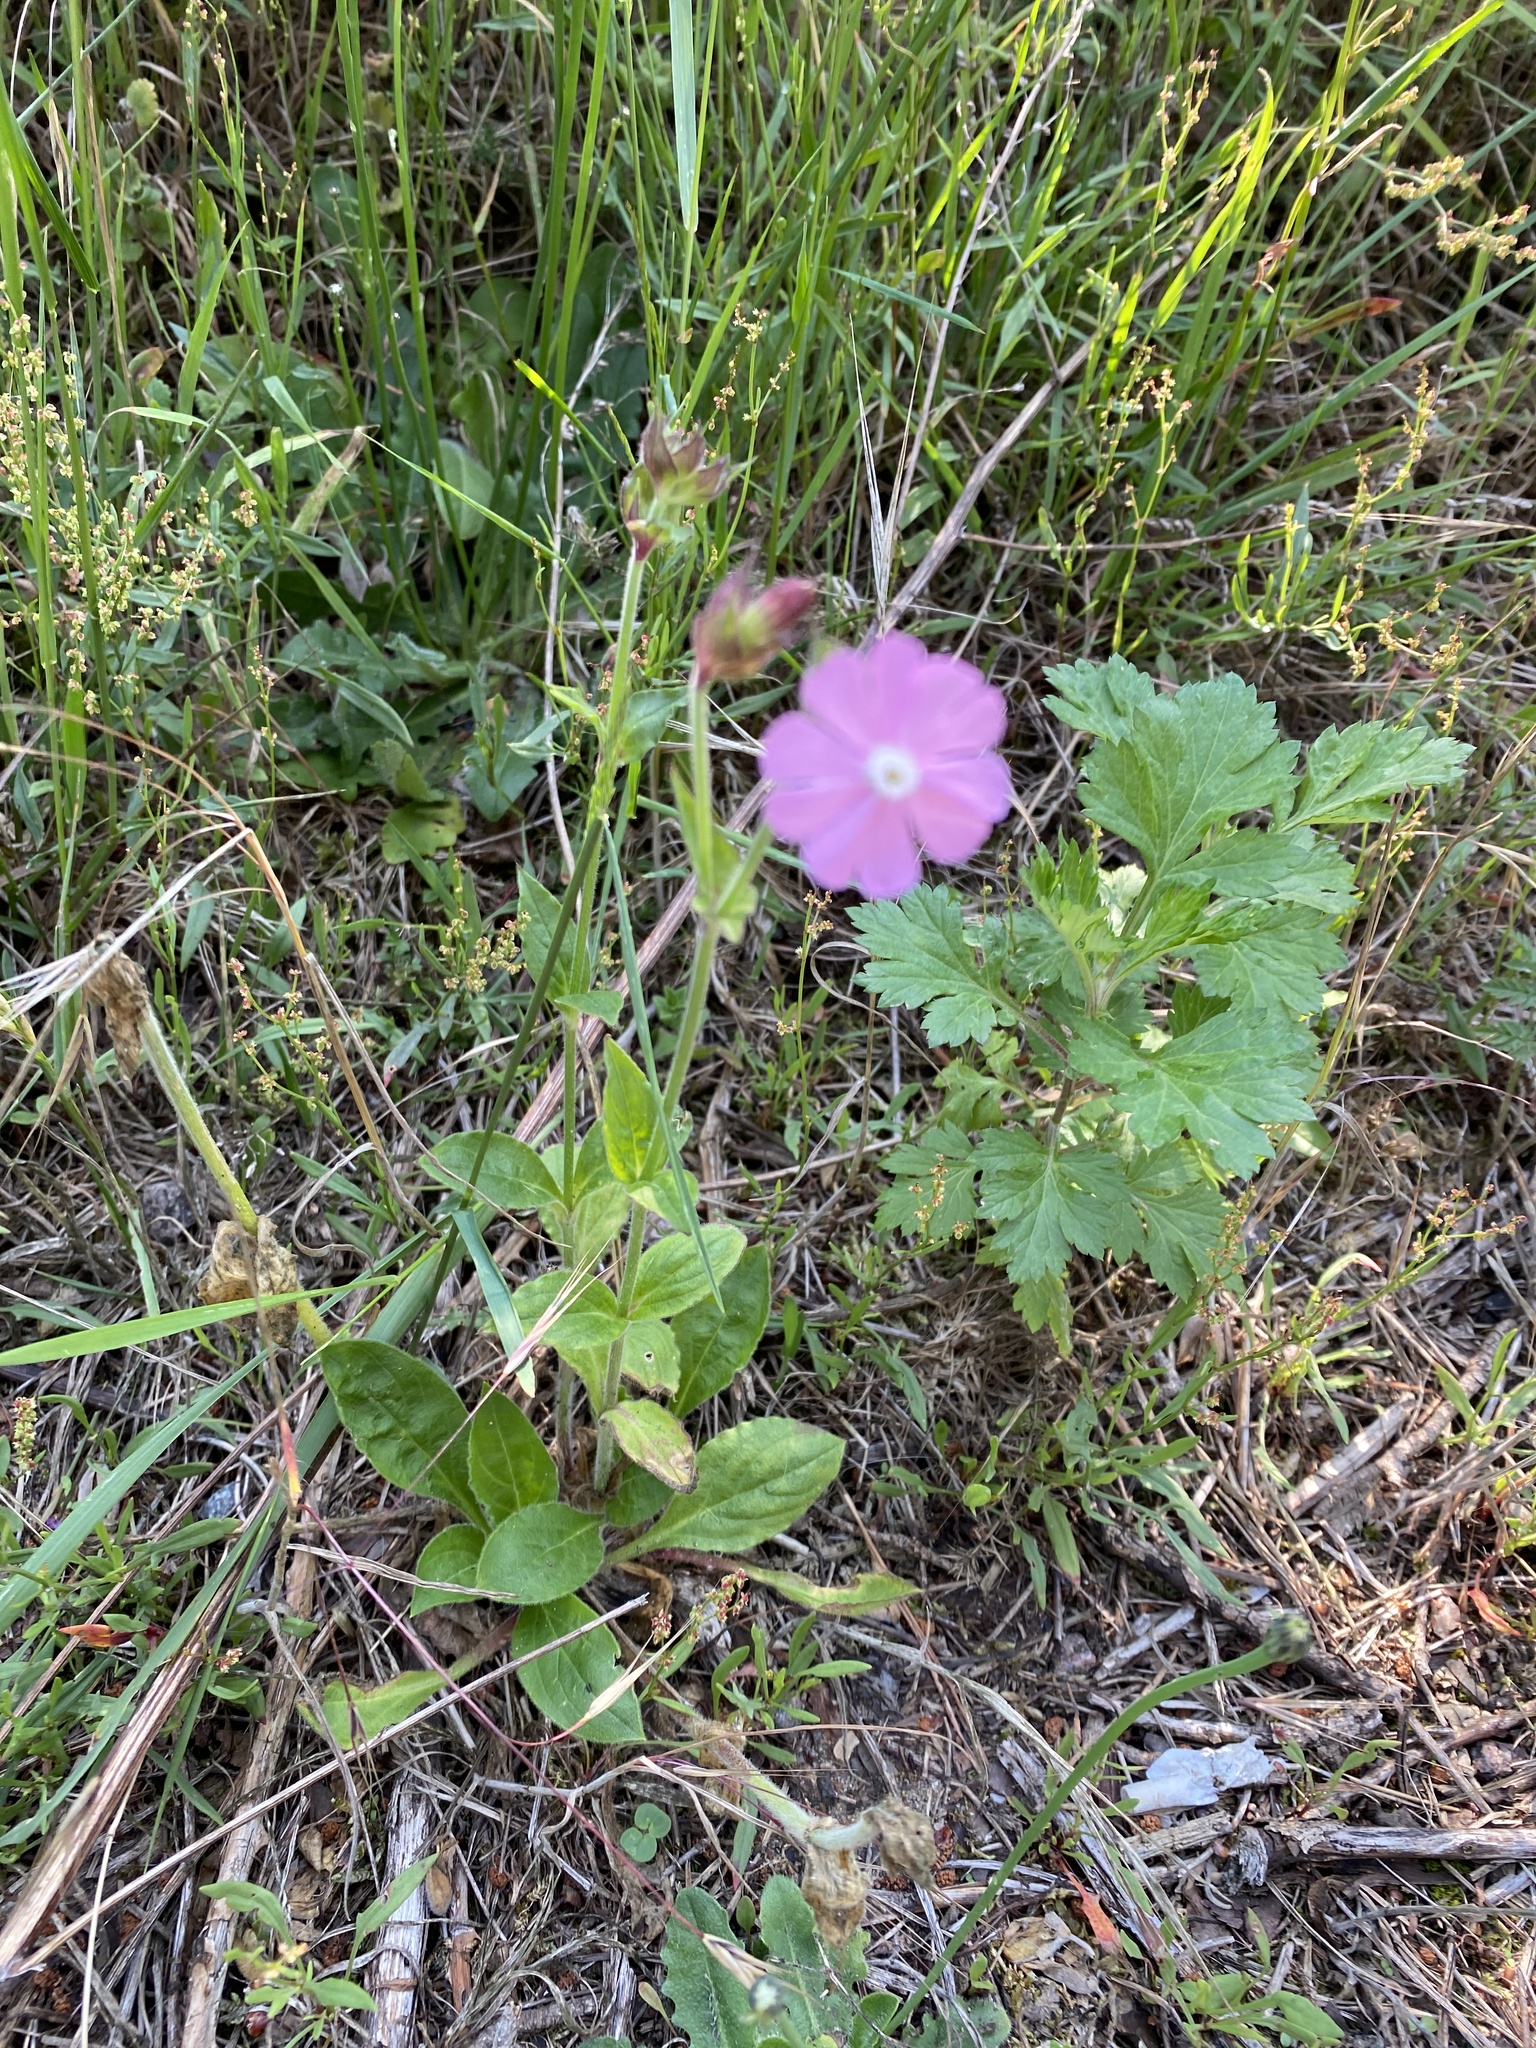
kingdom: Plantae
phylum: Tracheophyta
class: Magnoliopsida
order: Caryophyllales
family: Caryophyllaceae
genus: Silene
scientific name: Silene dioica
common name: Red campion
